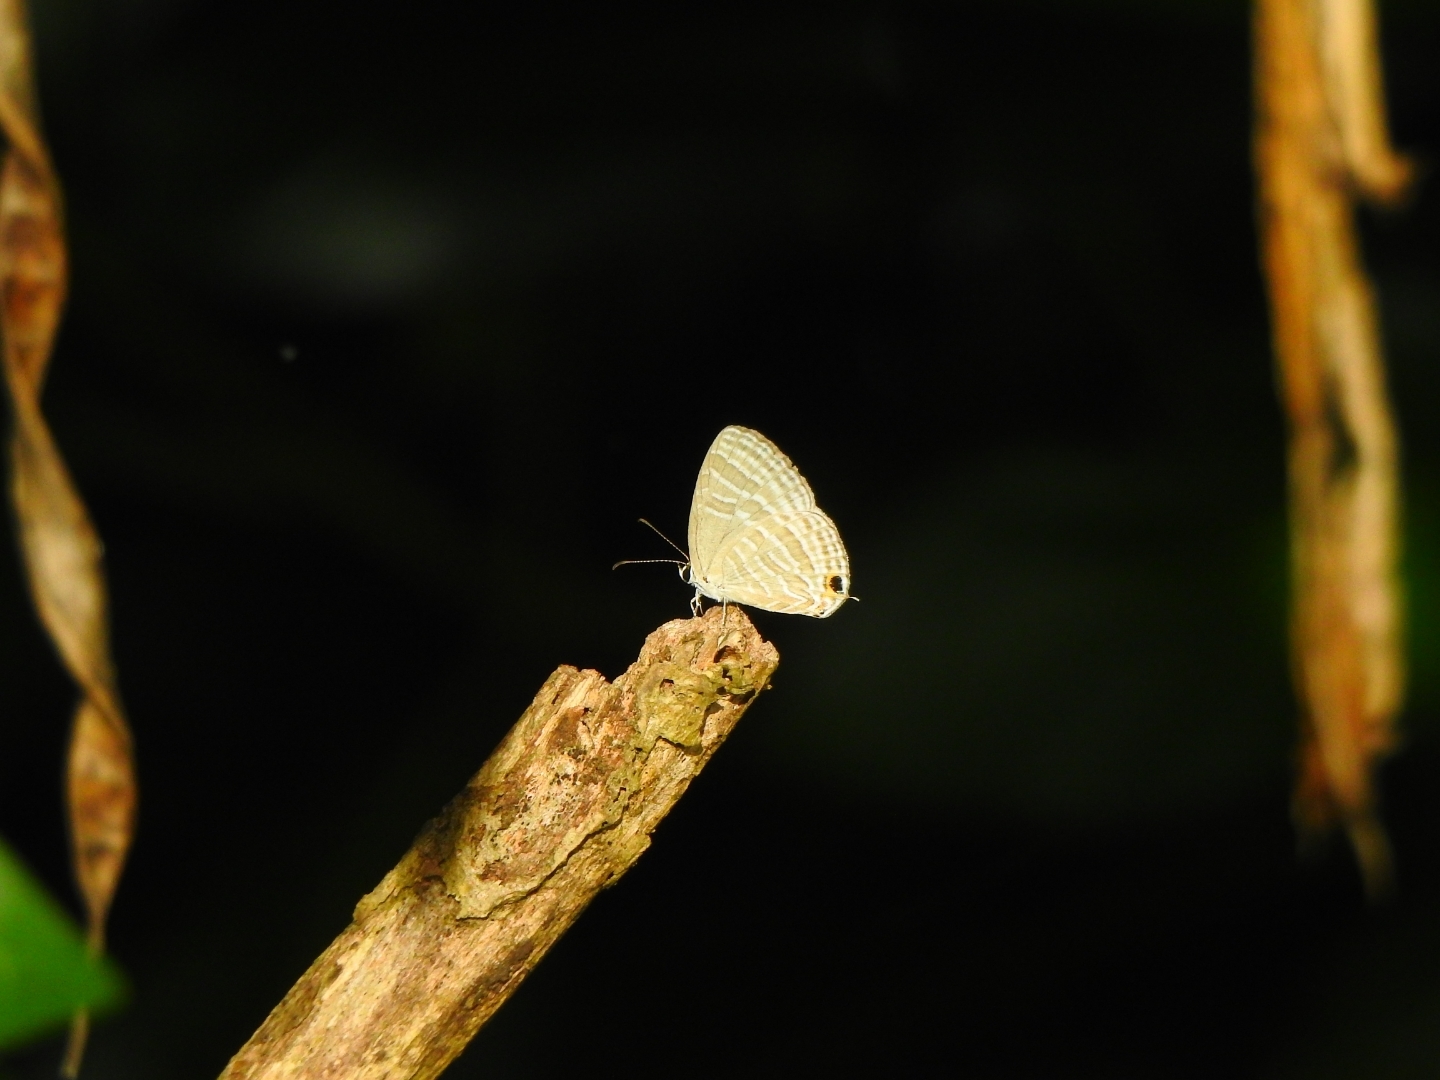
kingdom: Animalia
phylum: Arthropoda
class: Insecta
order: Lepidoptera
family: Lycaenidae
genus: Jamides
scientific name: Jamides celeno
